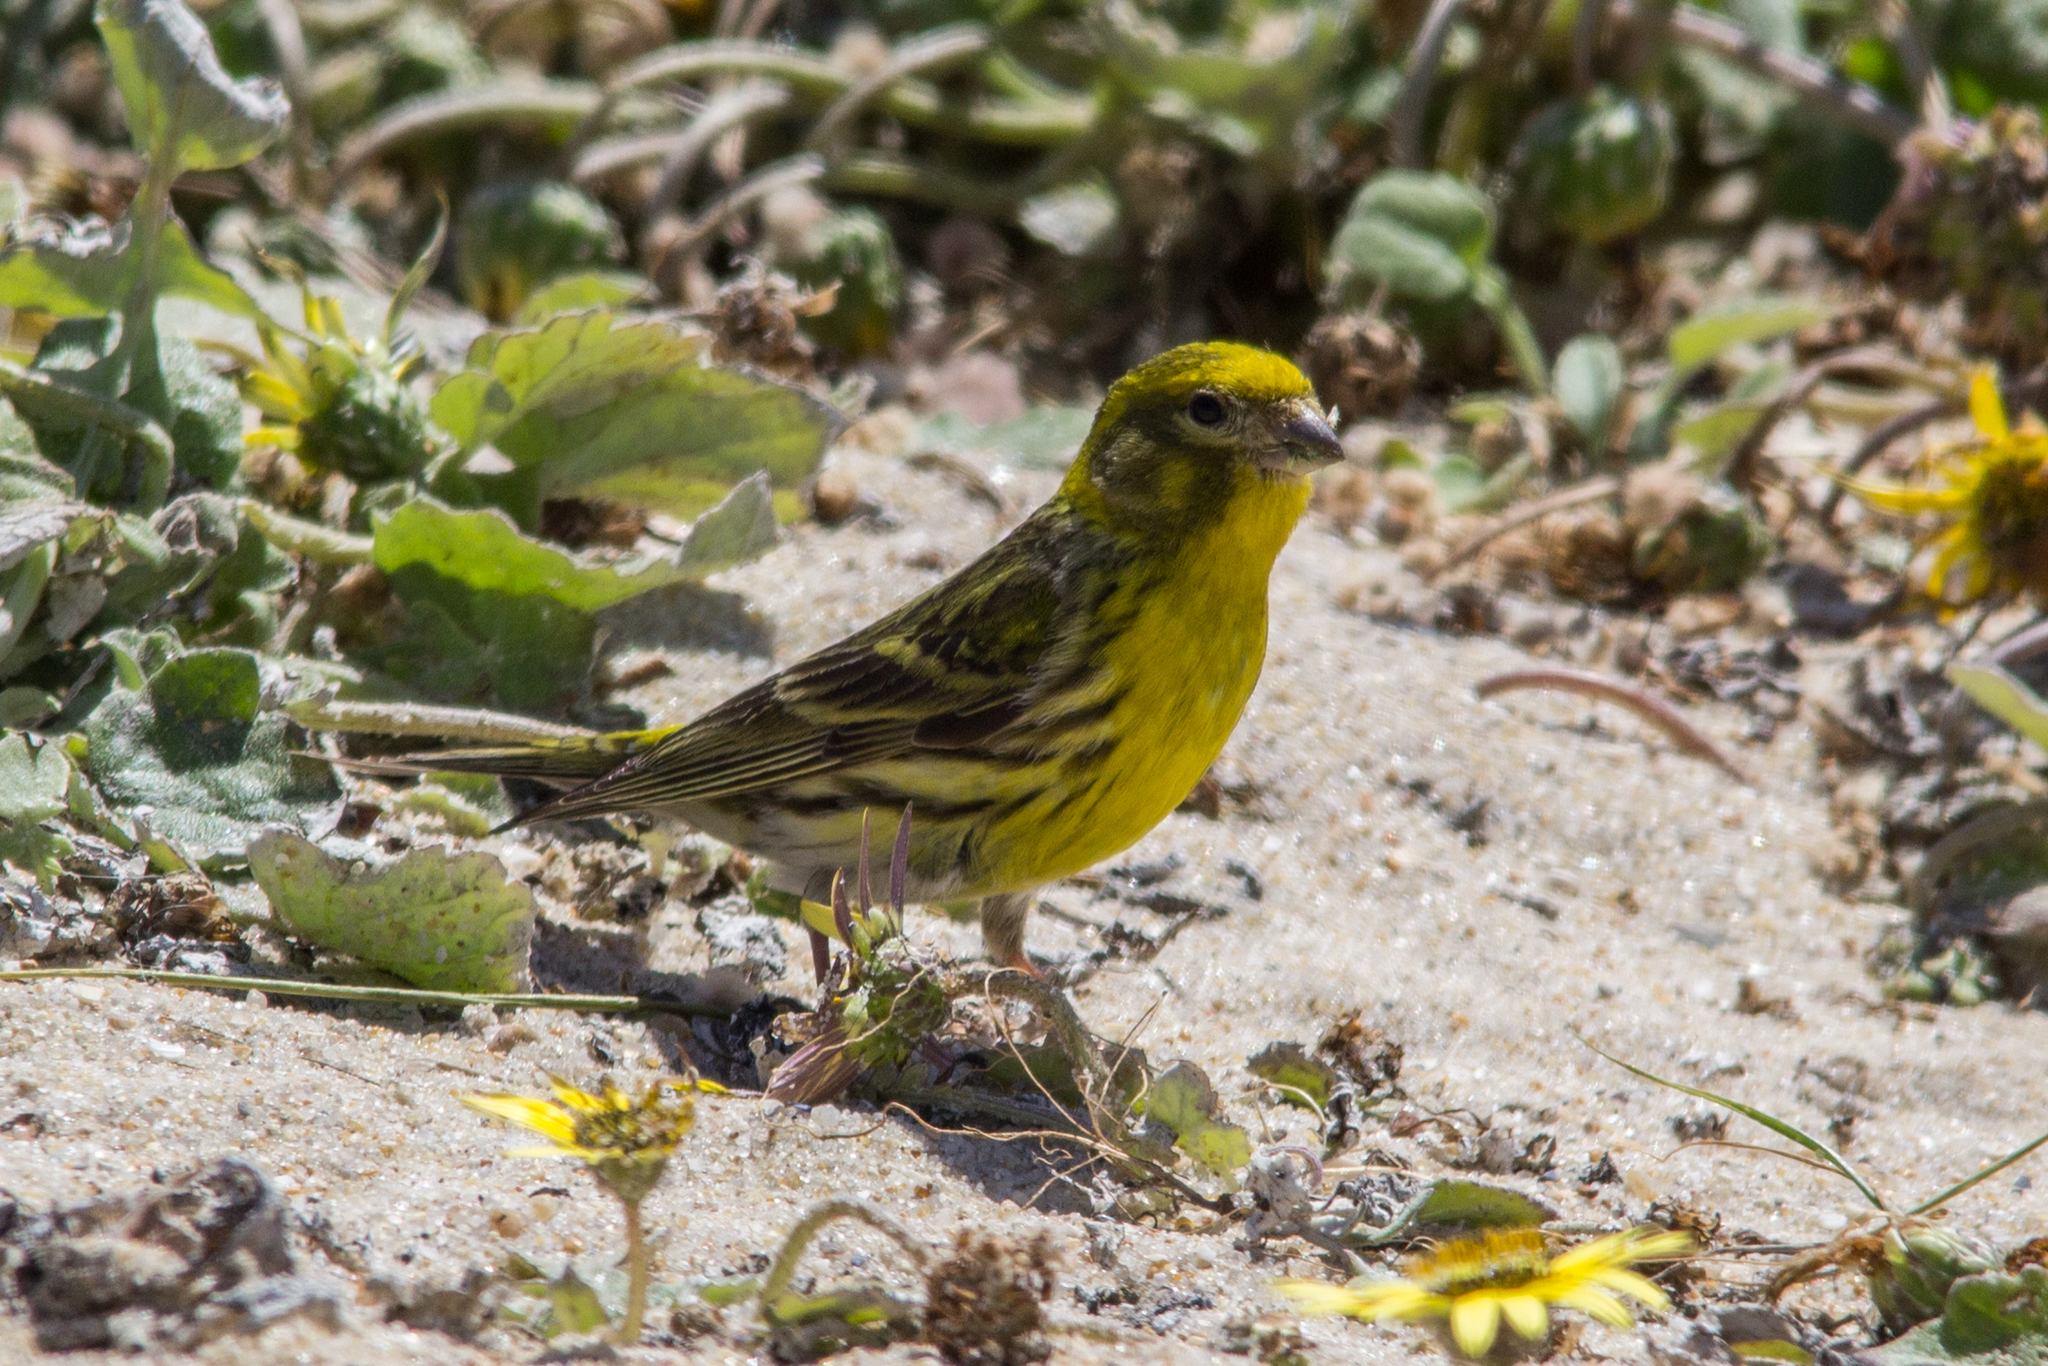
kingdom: Animalia
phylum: Chordata
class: Aves
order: Passeriformes
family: Fringillidae
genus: Serinus
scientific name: Serinus serinus
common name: European serin
